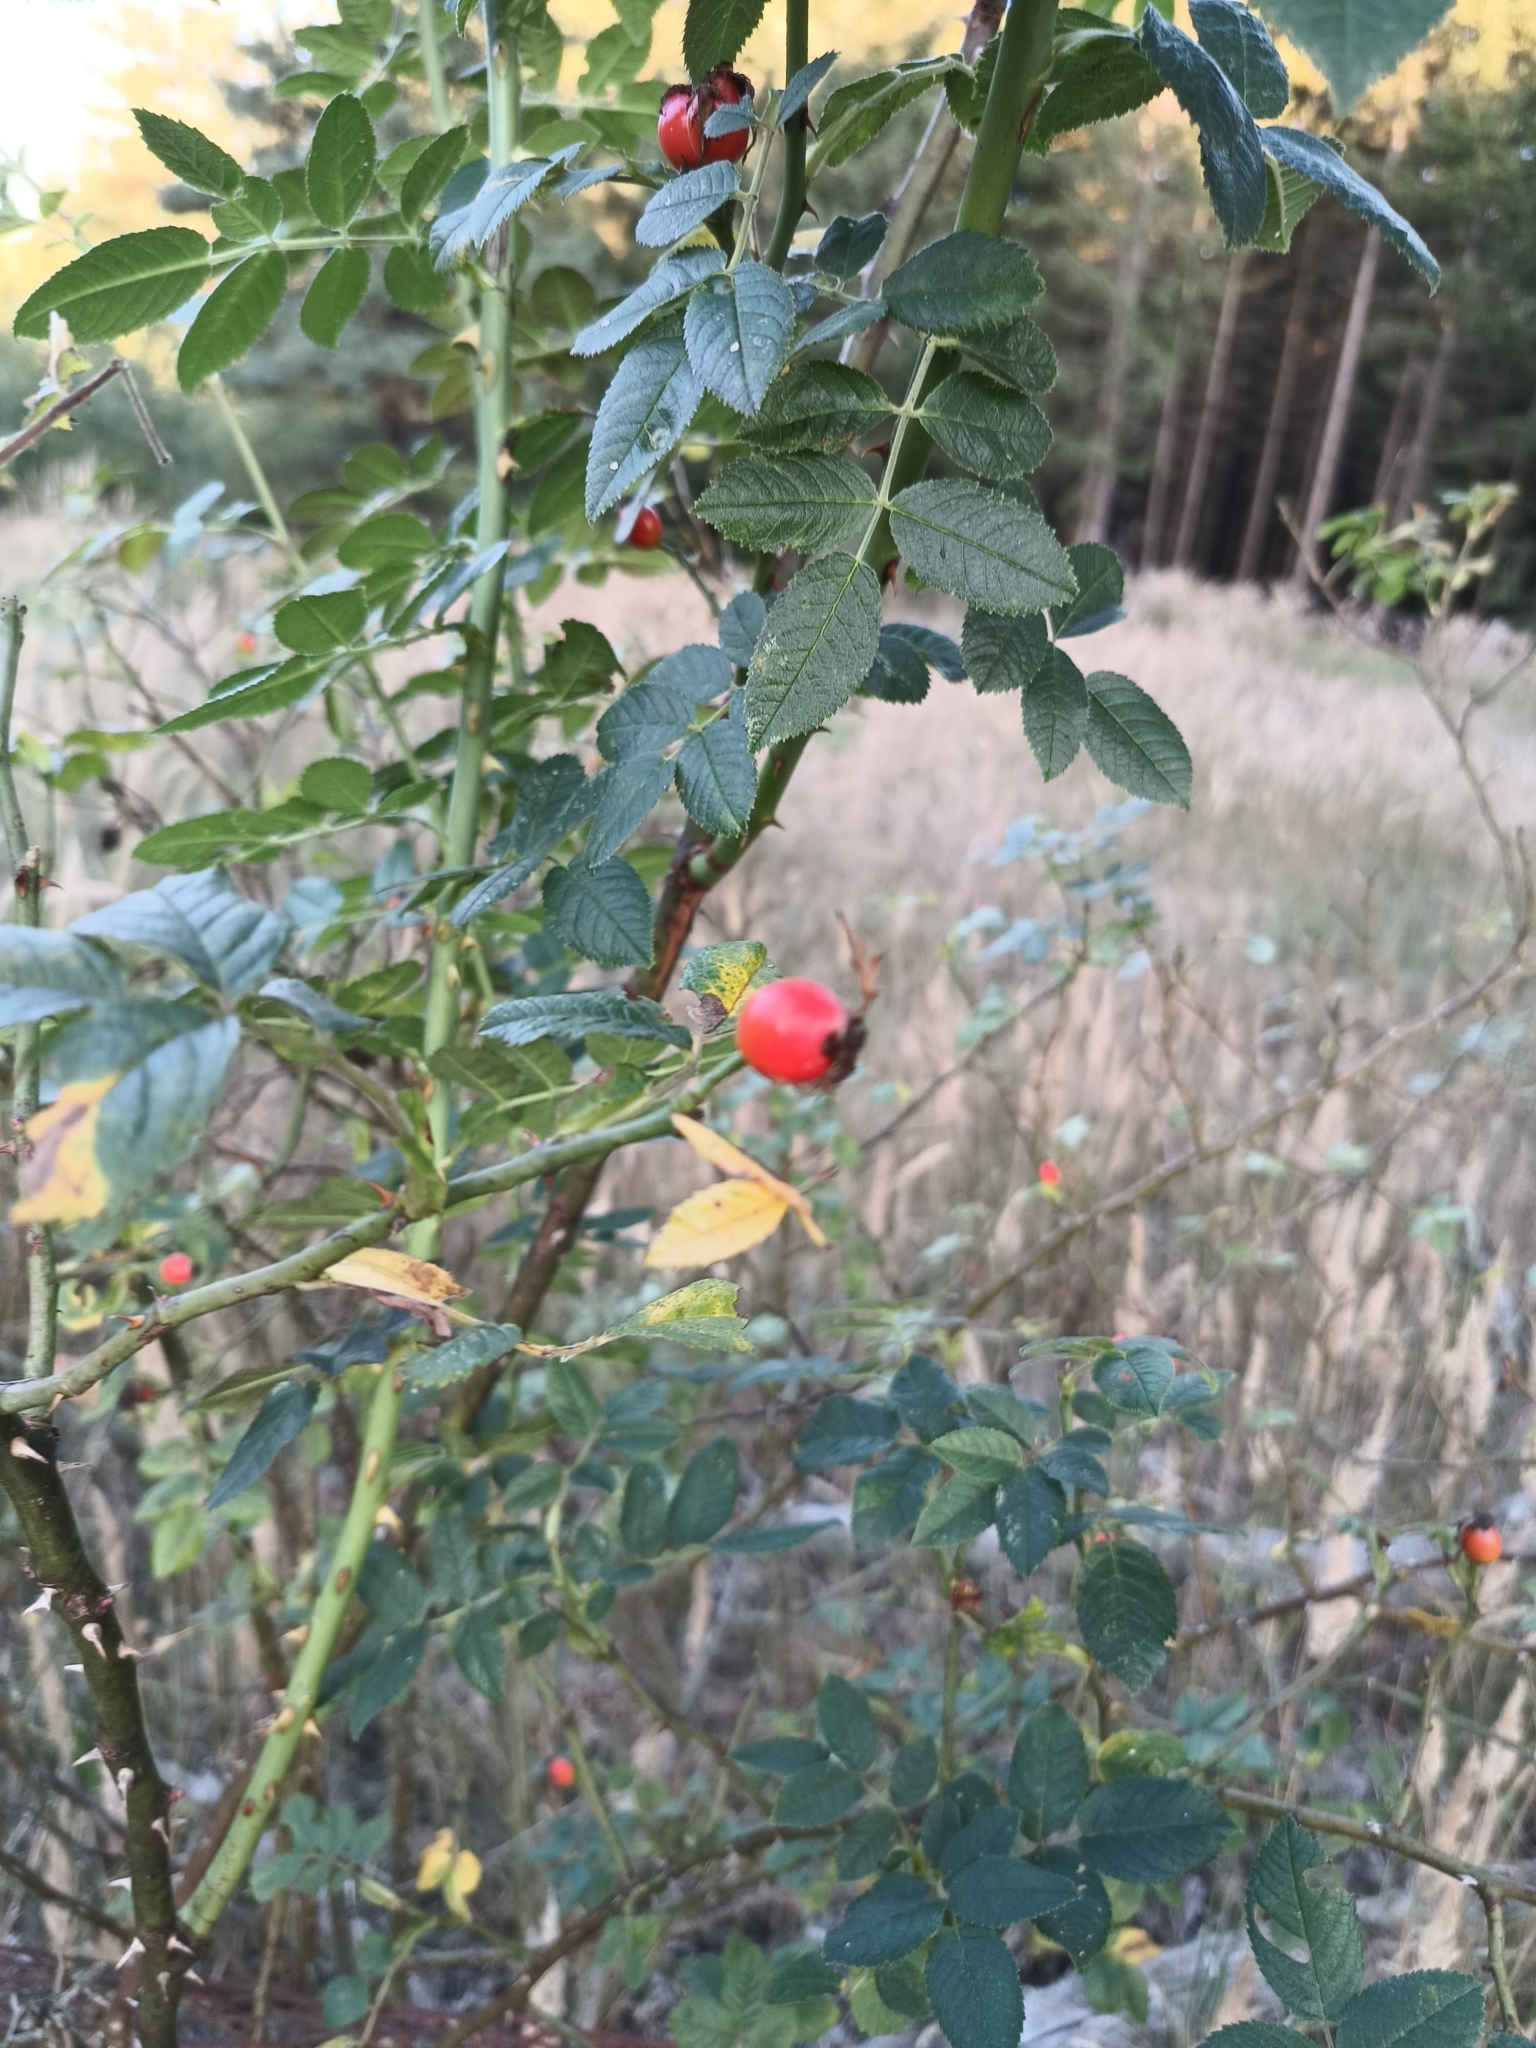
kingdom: Plantae
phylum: Tracheophyta
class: Magnoliopsida
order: Rosales
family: Rosaceae
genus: Rosa
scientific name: Rosa corymbifera
